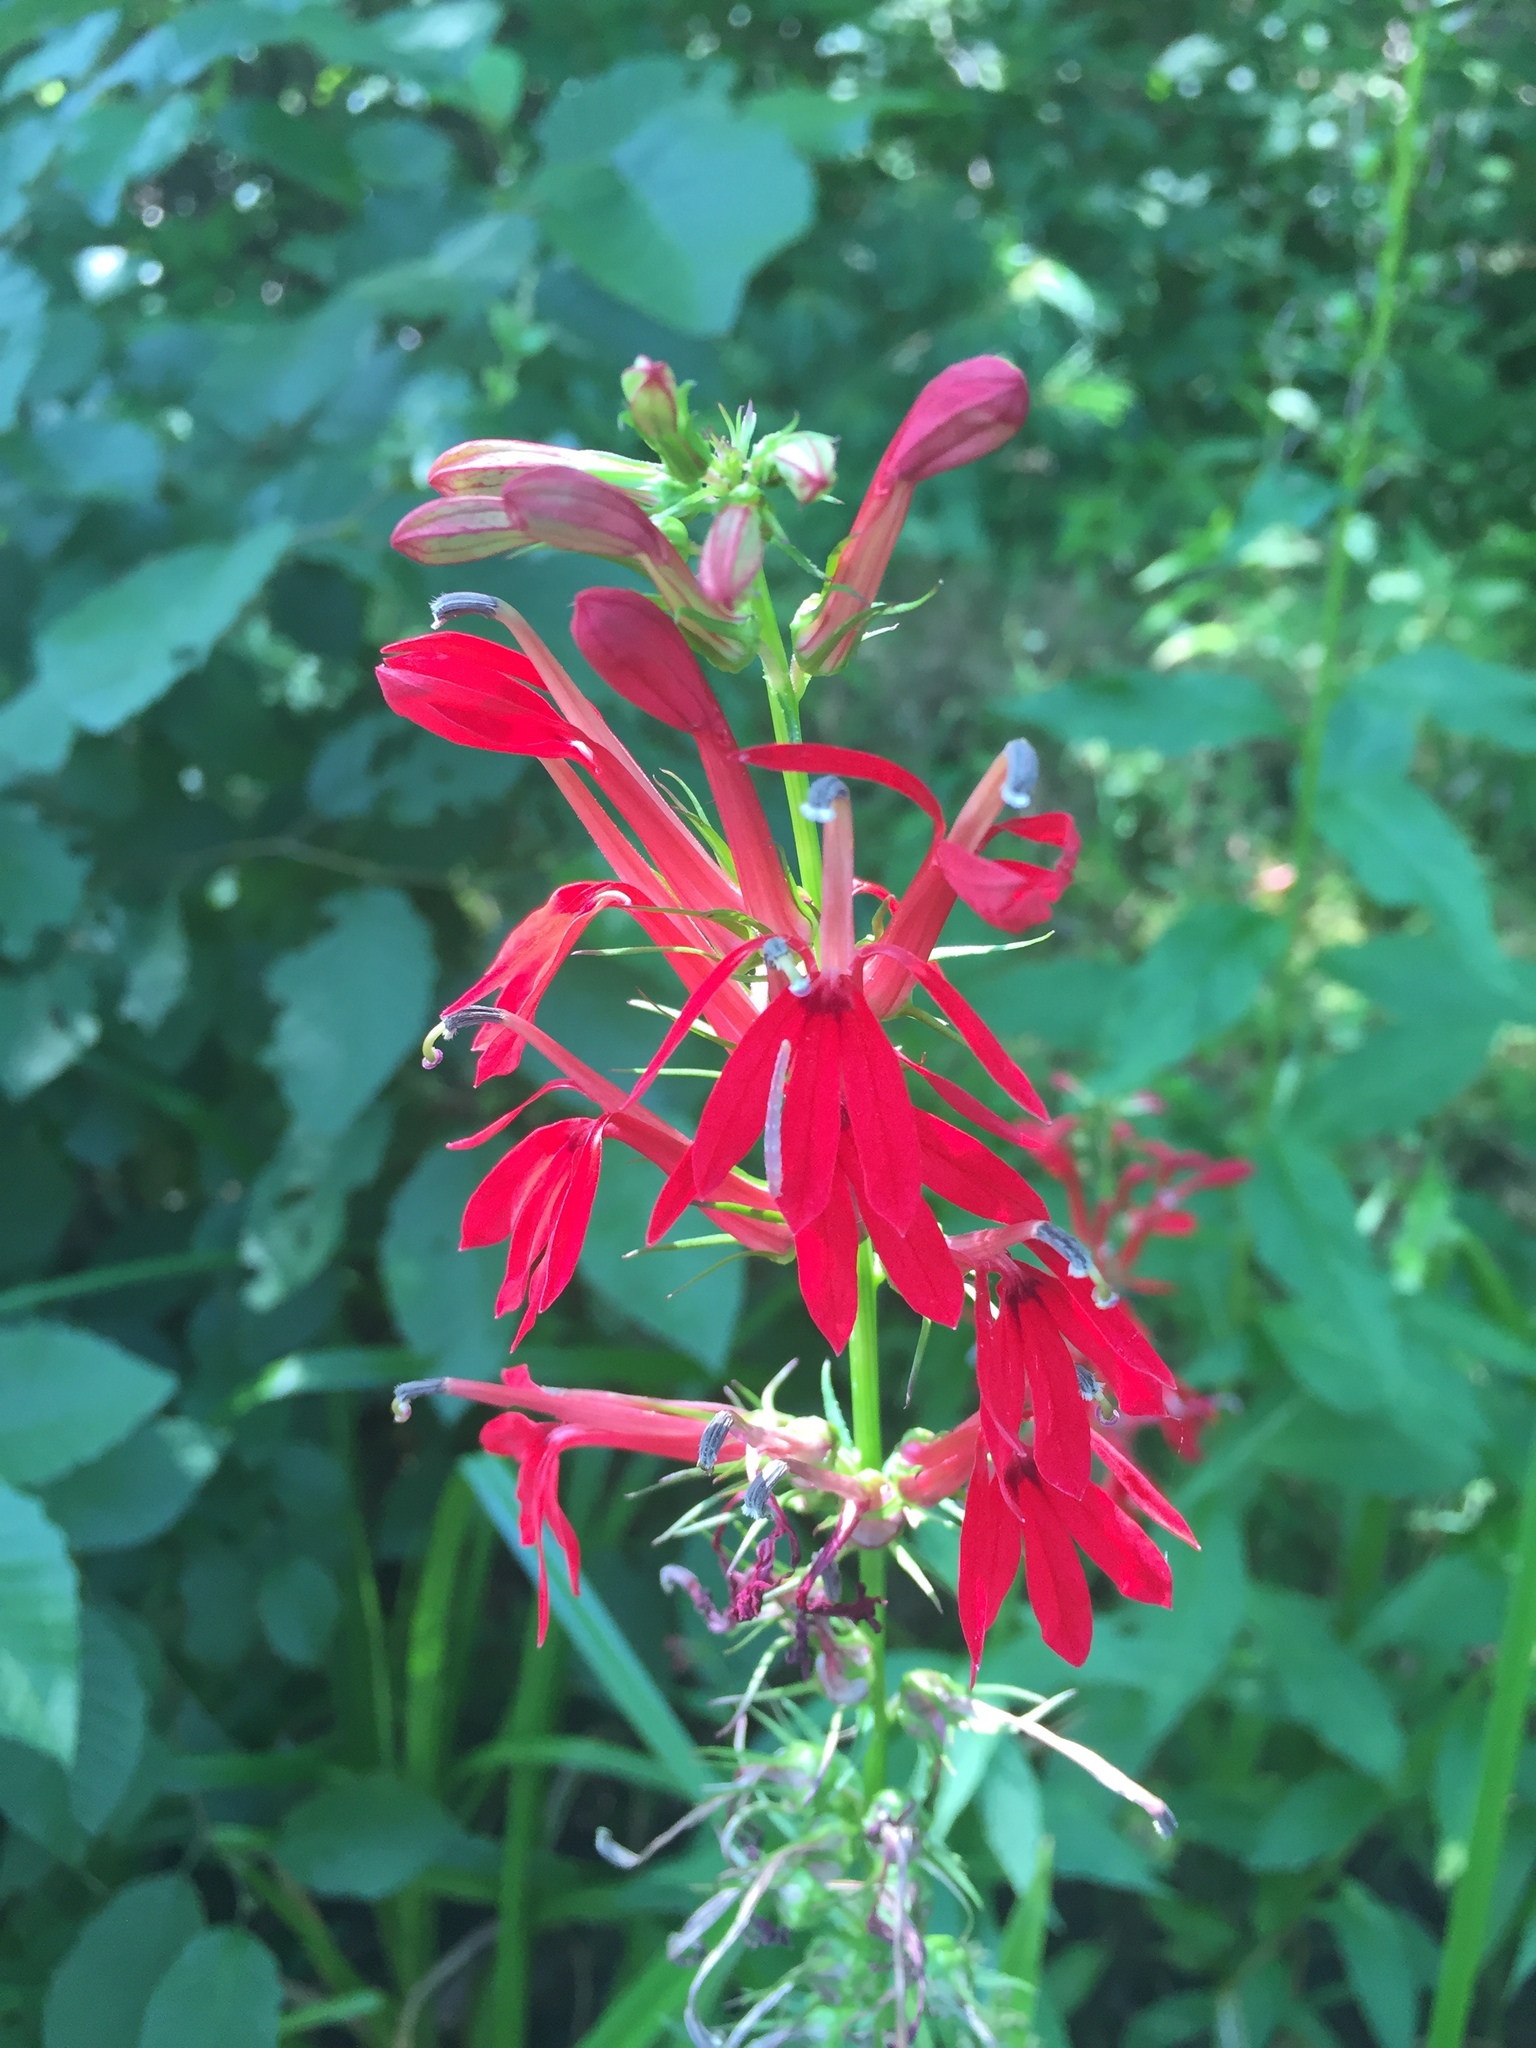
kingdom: Plantae
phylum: Tracheophyta
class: Magnoliopsida
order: Asterales
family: Campanulaceae
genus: Lobelia
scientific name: Lobelia cardinalis
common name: Cardinal flower
